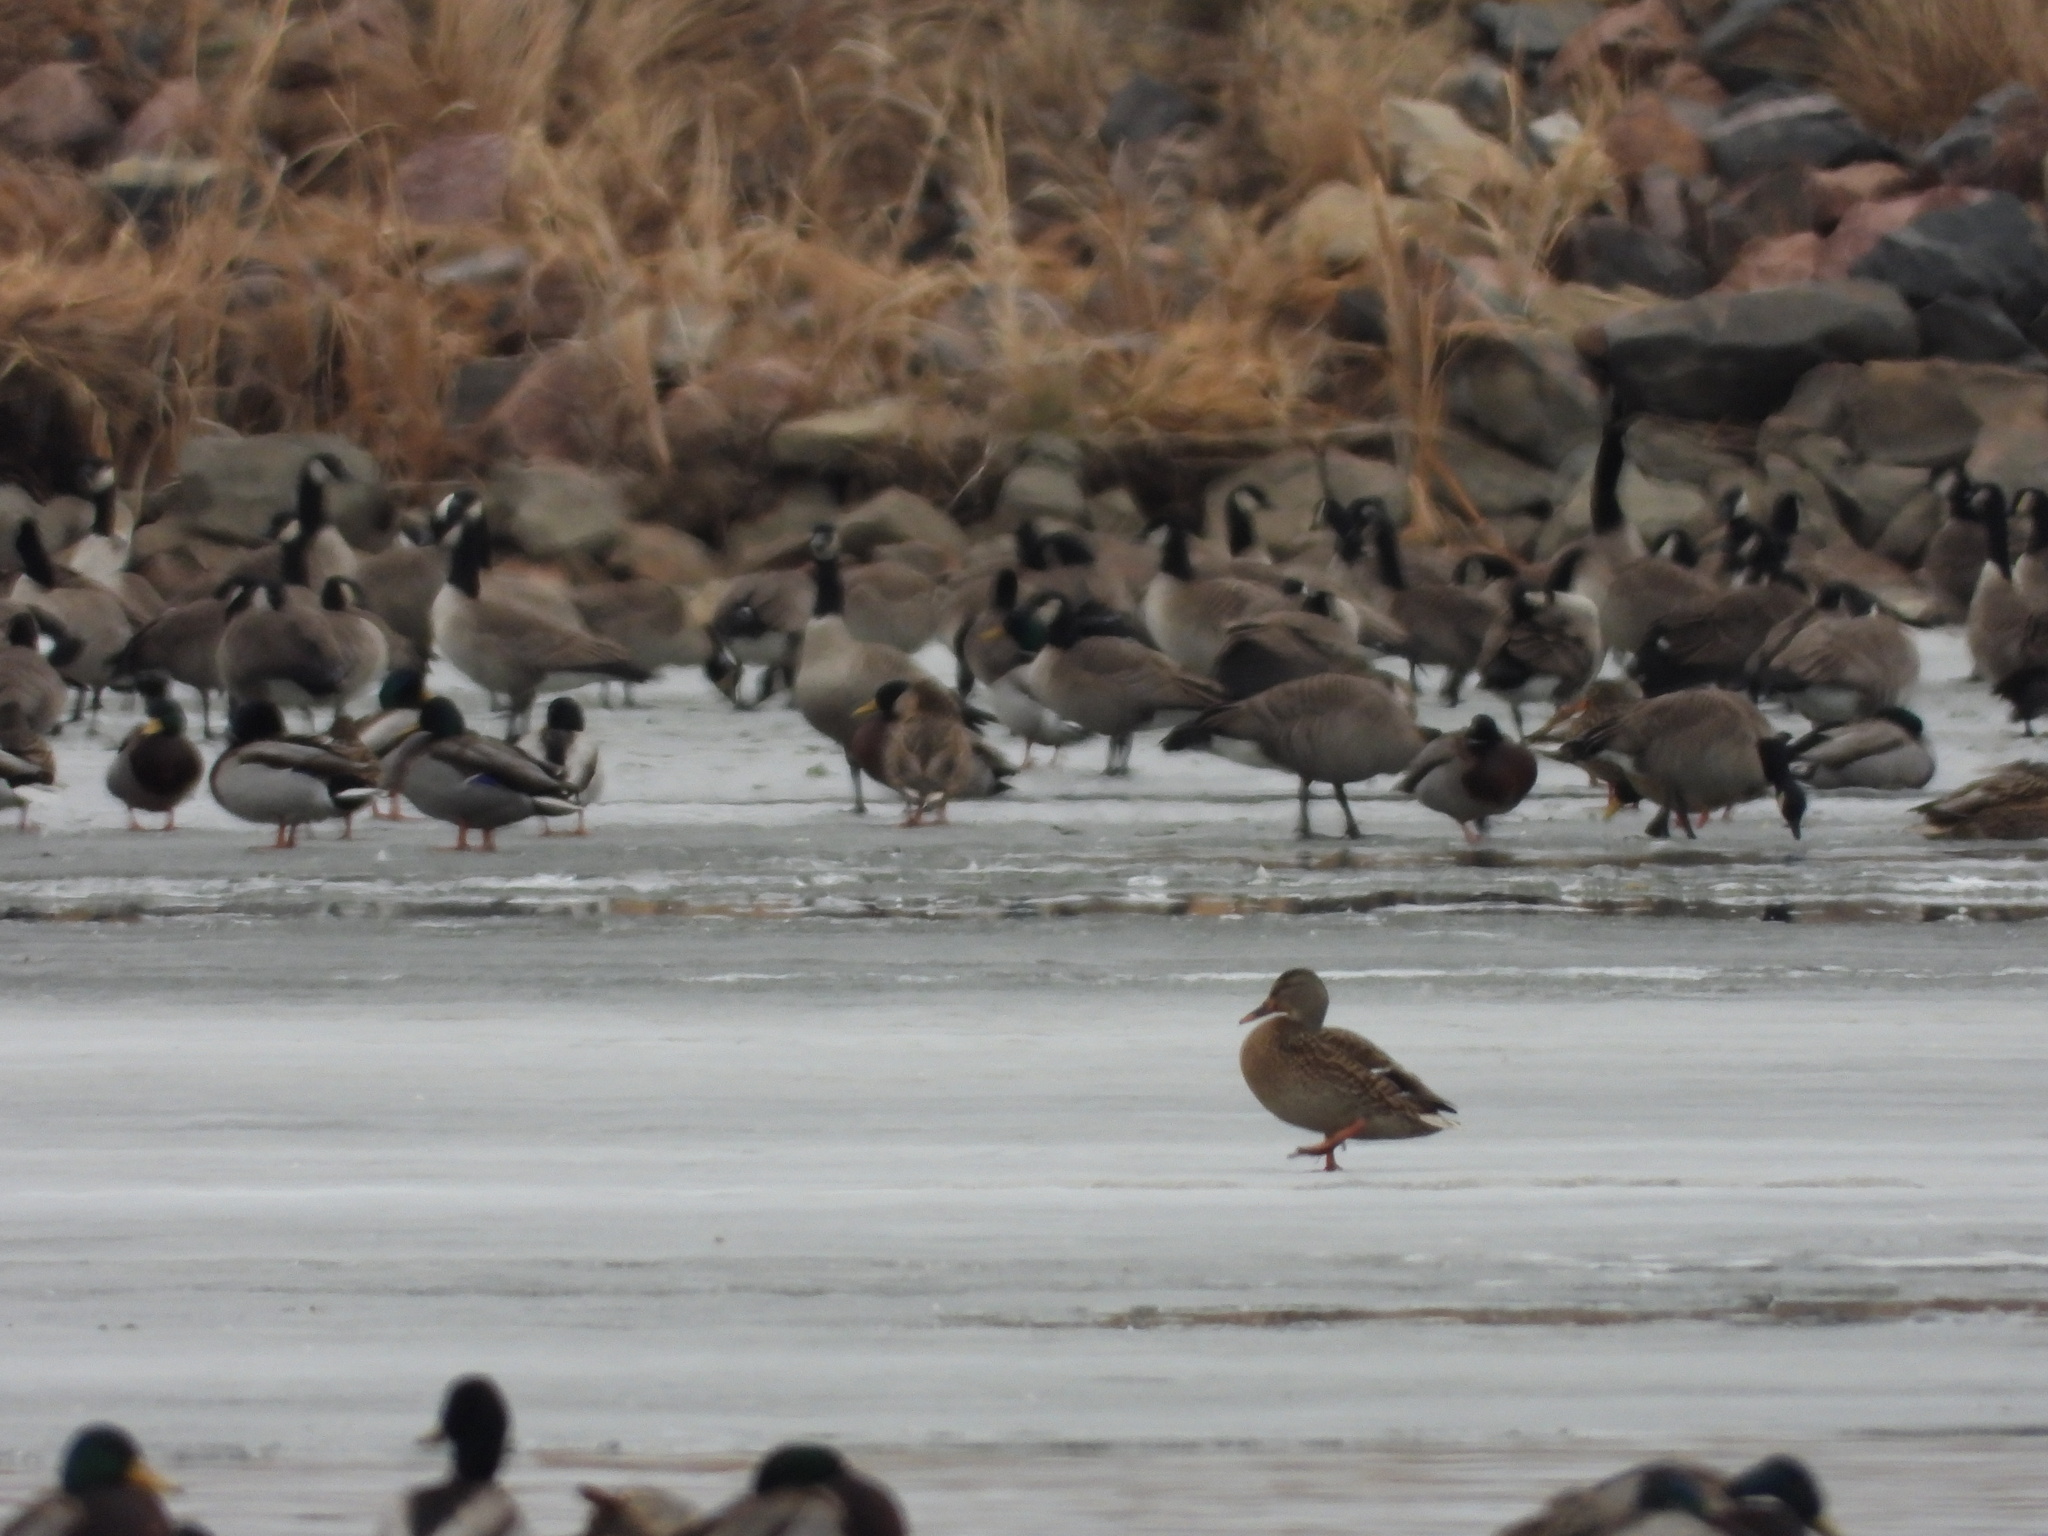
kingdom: Animalia
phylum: Chordata
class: Aves
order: Anseriformes
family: Anatidae
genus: Anas
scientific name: Anas platyrhynchos
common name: Mallard
